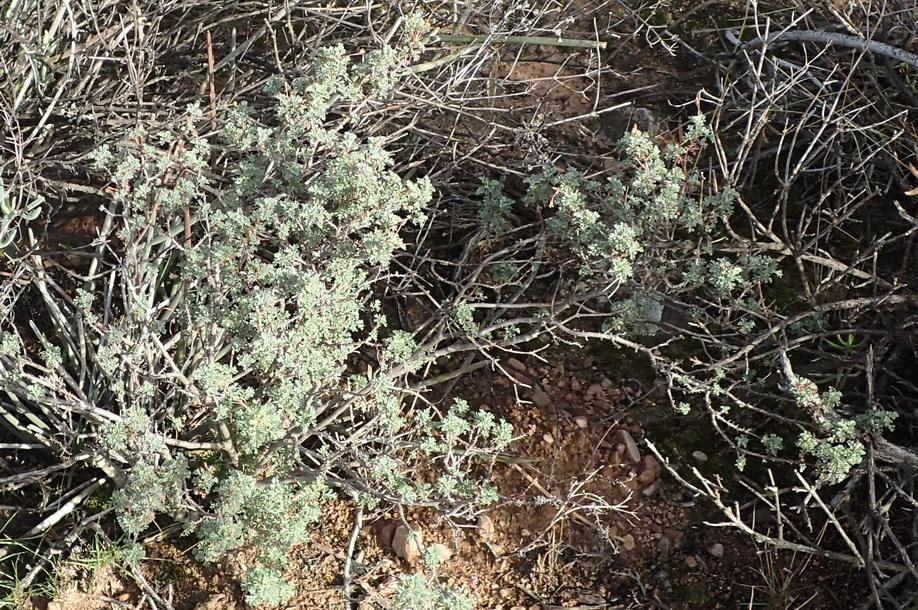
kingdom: Plantae
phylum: Tracheophyta
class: Magnoliopsida
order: Geraniales
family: Geraniaceae
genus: Pelargonium
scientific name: Pelargonium exstipulatum
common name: Soft-leaf trifid pelargonium
